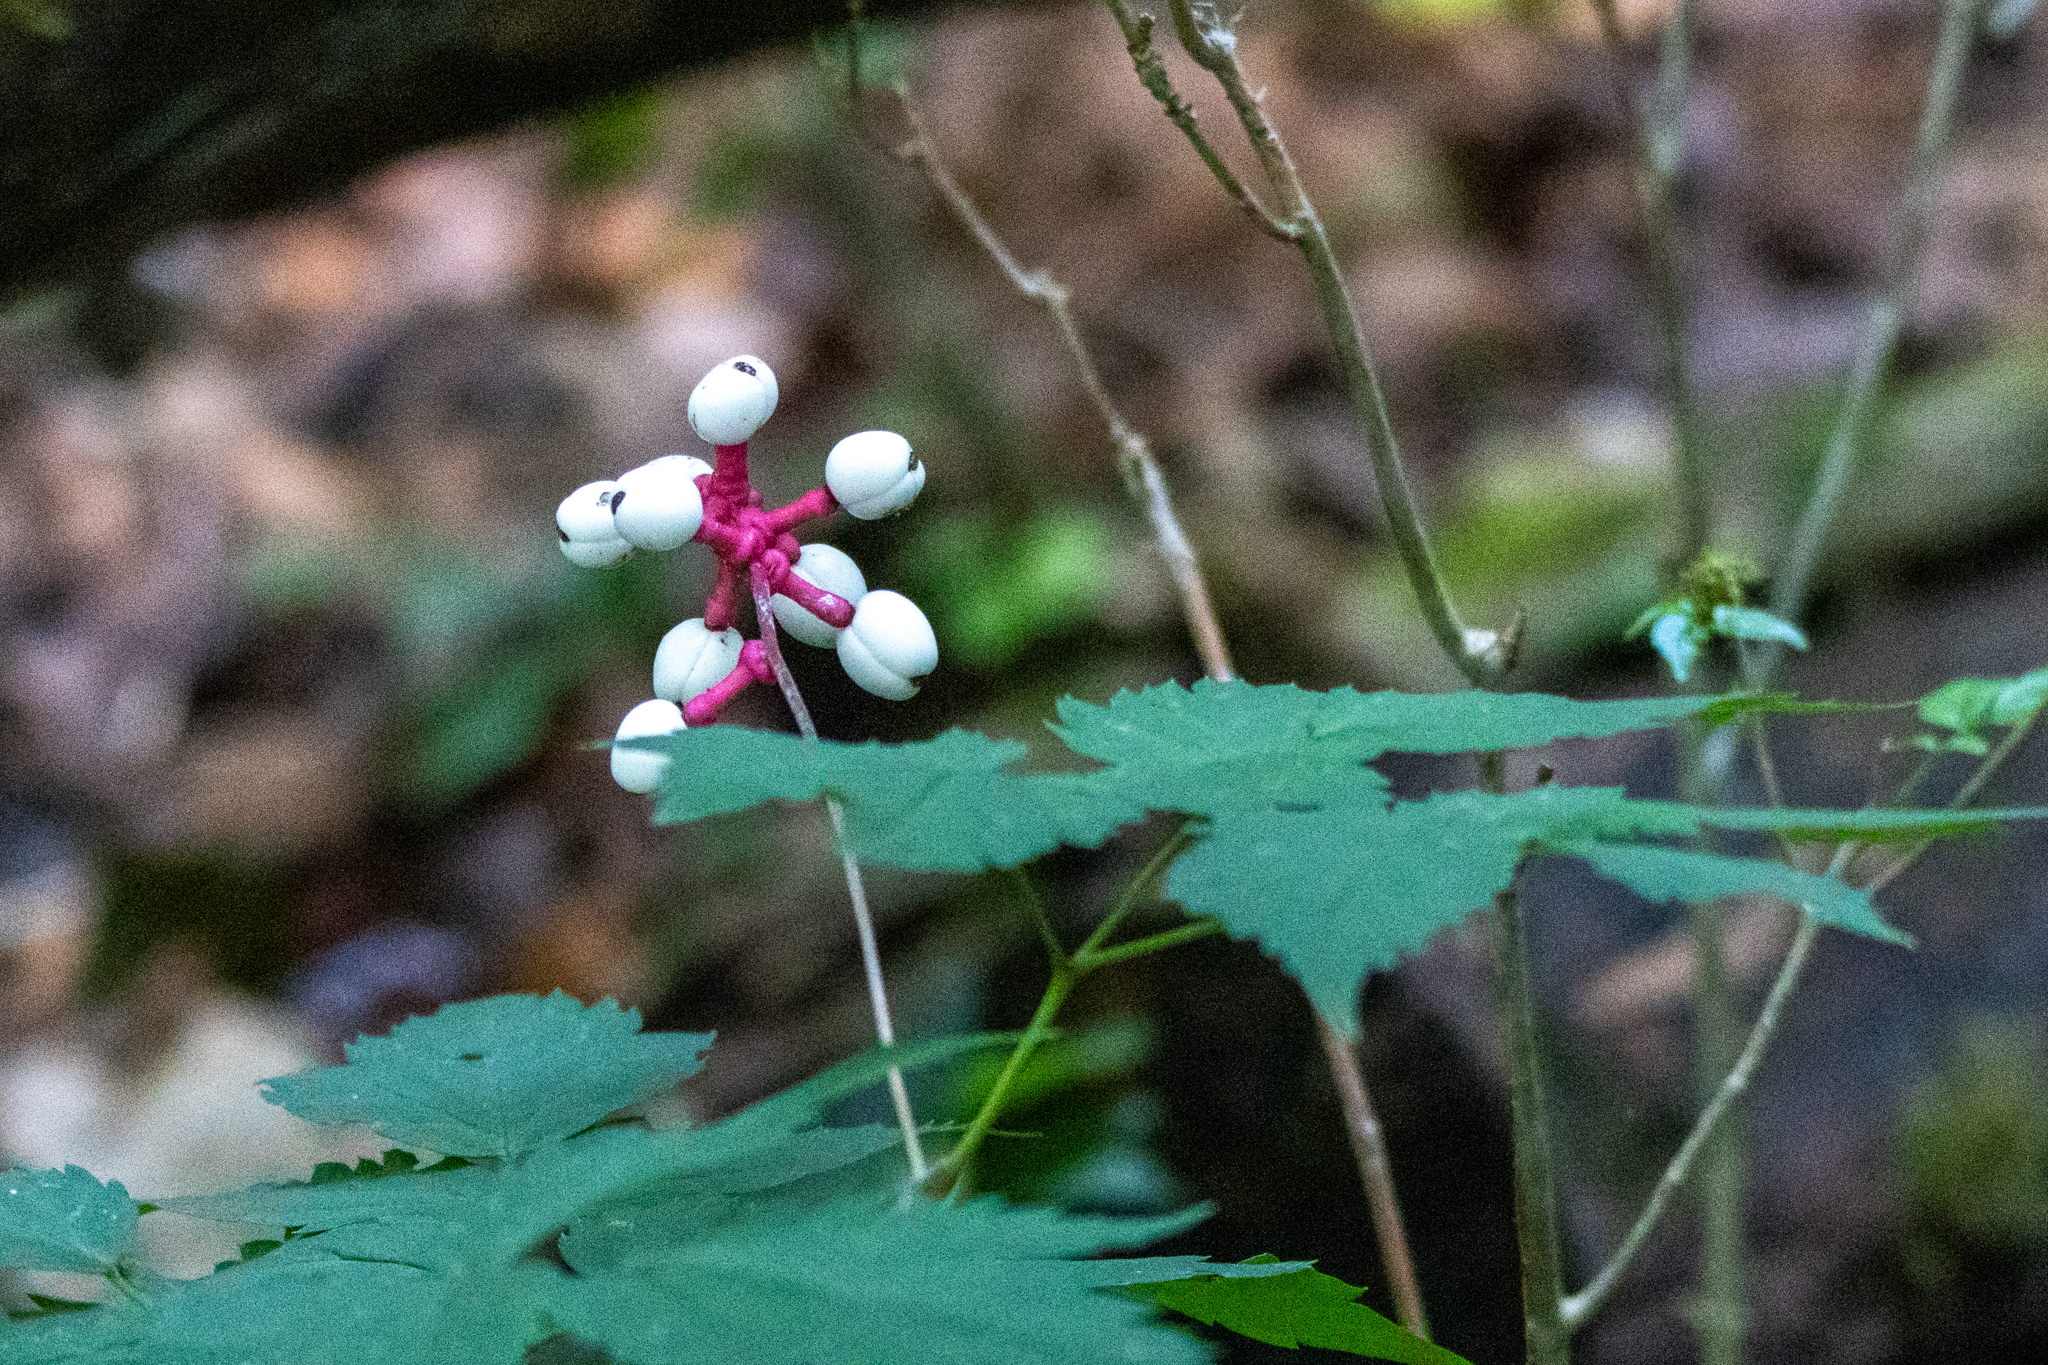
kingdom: Plantae
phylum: Tracheophyta
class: Magnoliopsida
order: Ranunculales
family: Ranunculaceae
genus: Actaea
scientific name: Actaea pachypoda
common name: Doll's-eyes
